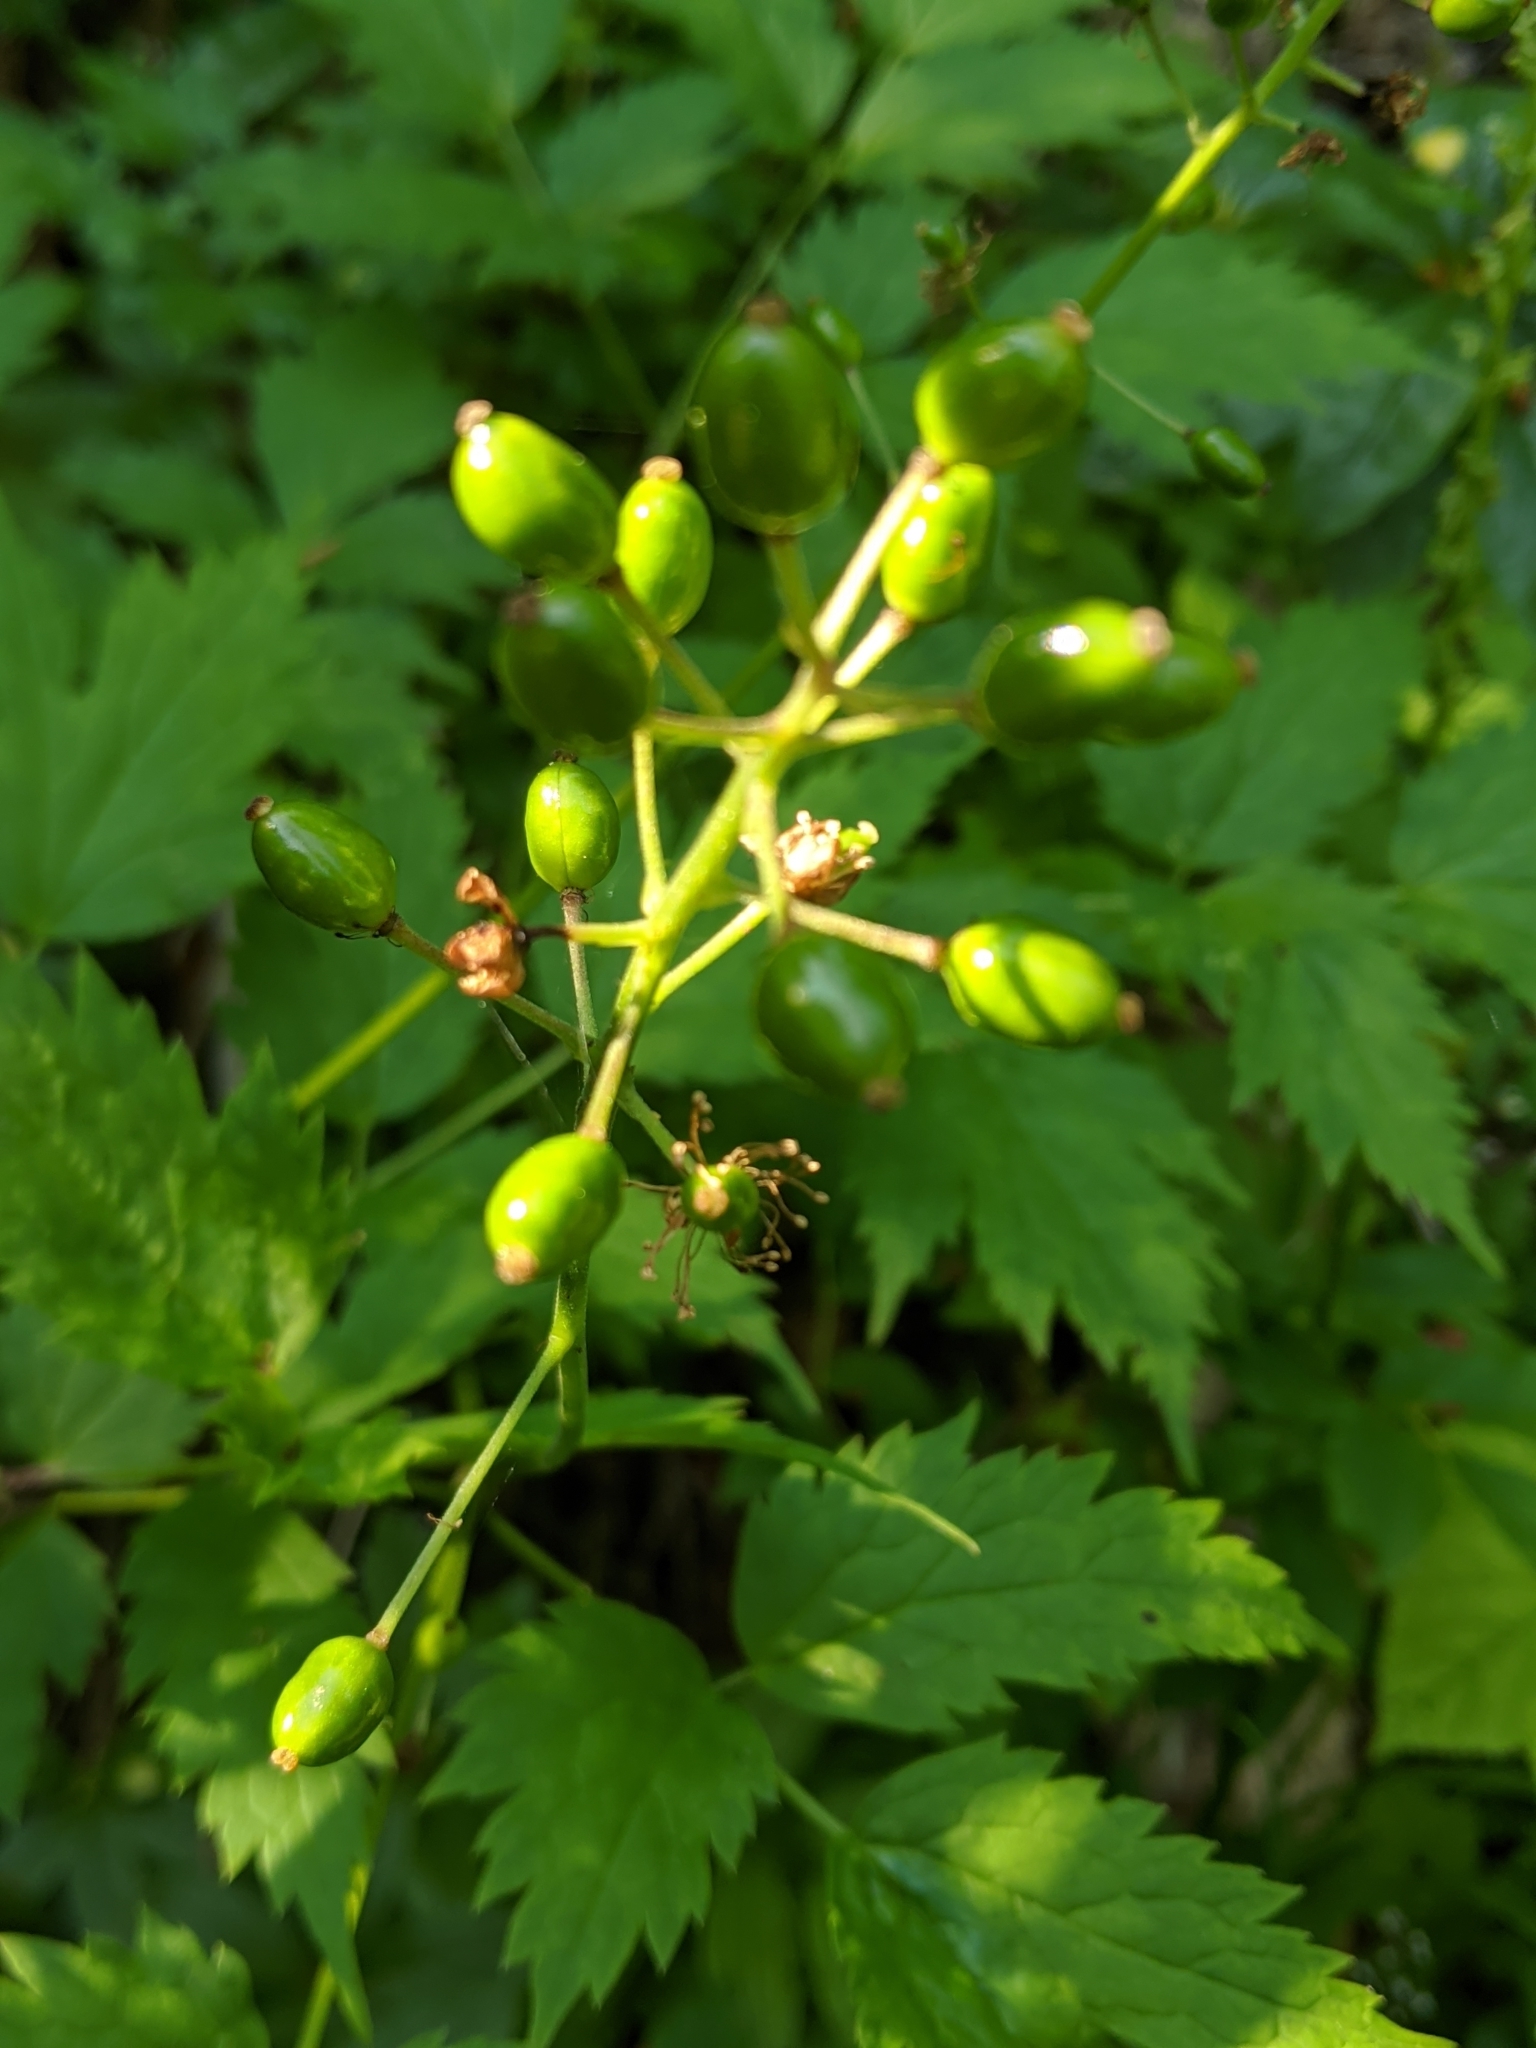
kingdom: Plantae
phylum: Tracheophyta
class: Magnoliopsida
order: Ranunculales
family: Ranunculaceae
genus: Actaea
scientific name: Actaea rubra
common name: Red baneberry
